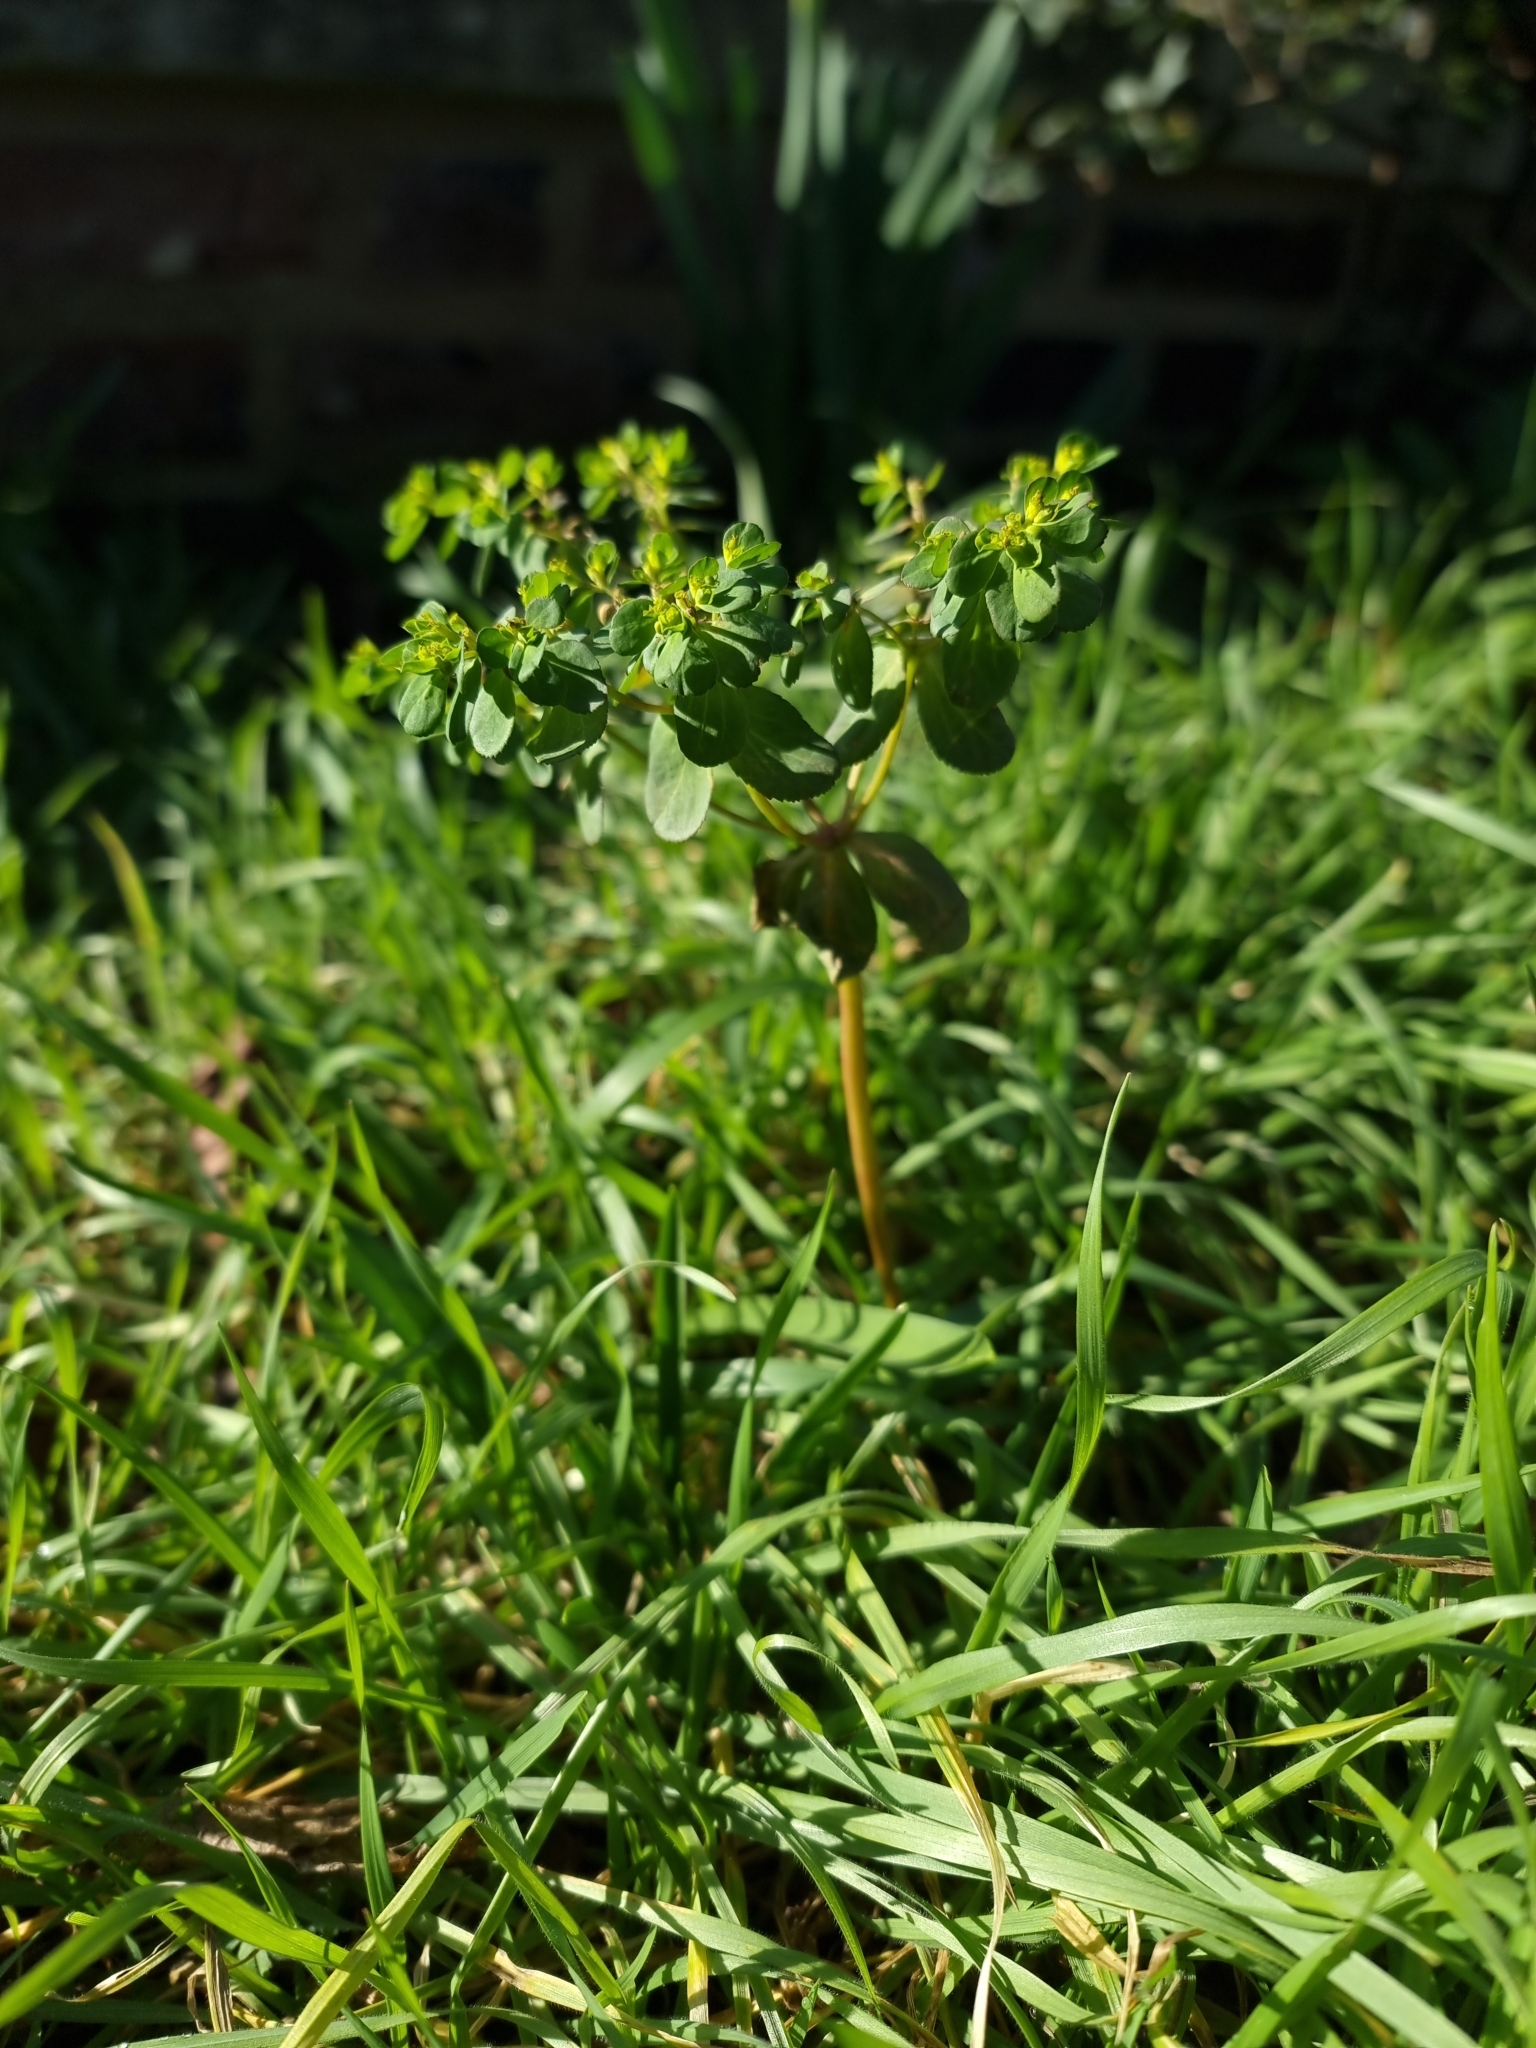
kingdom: Plantae
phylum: Tracheophyta
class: Magnoliopsida
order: Malpighiales
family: Euphorbiaceae
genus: Euphorbia
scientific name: Euphorbia helioscopia
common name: Sun spurge
